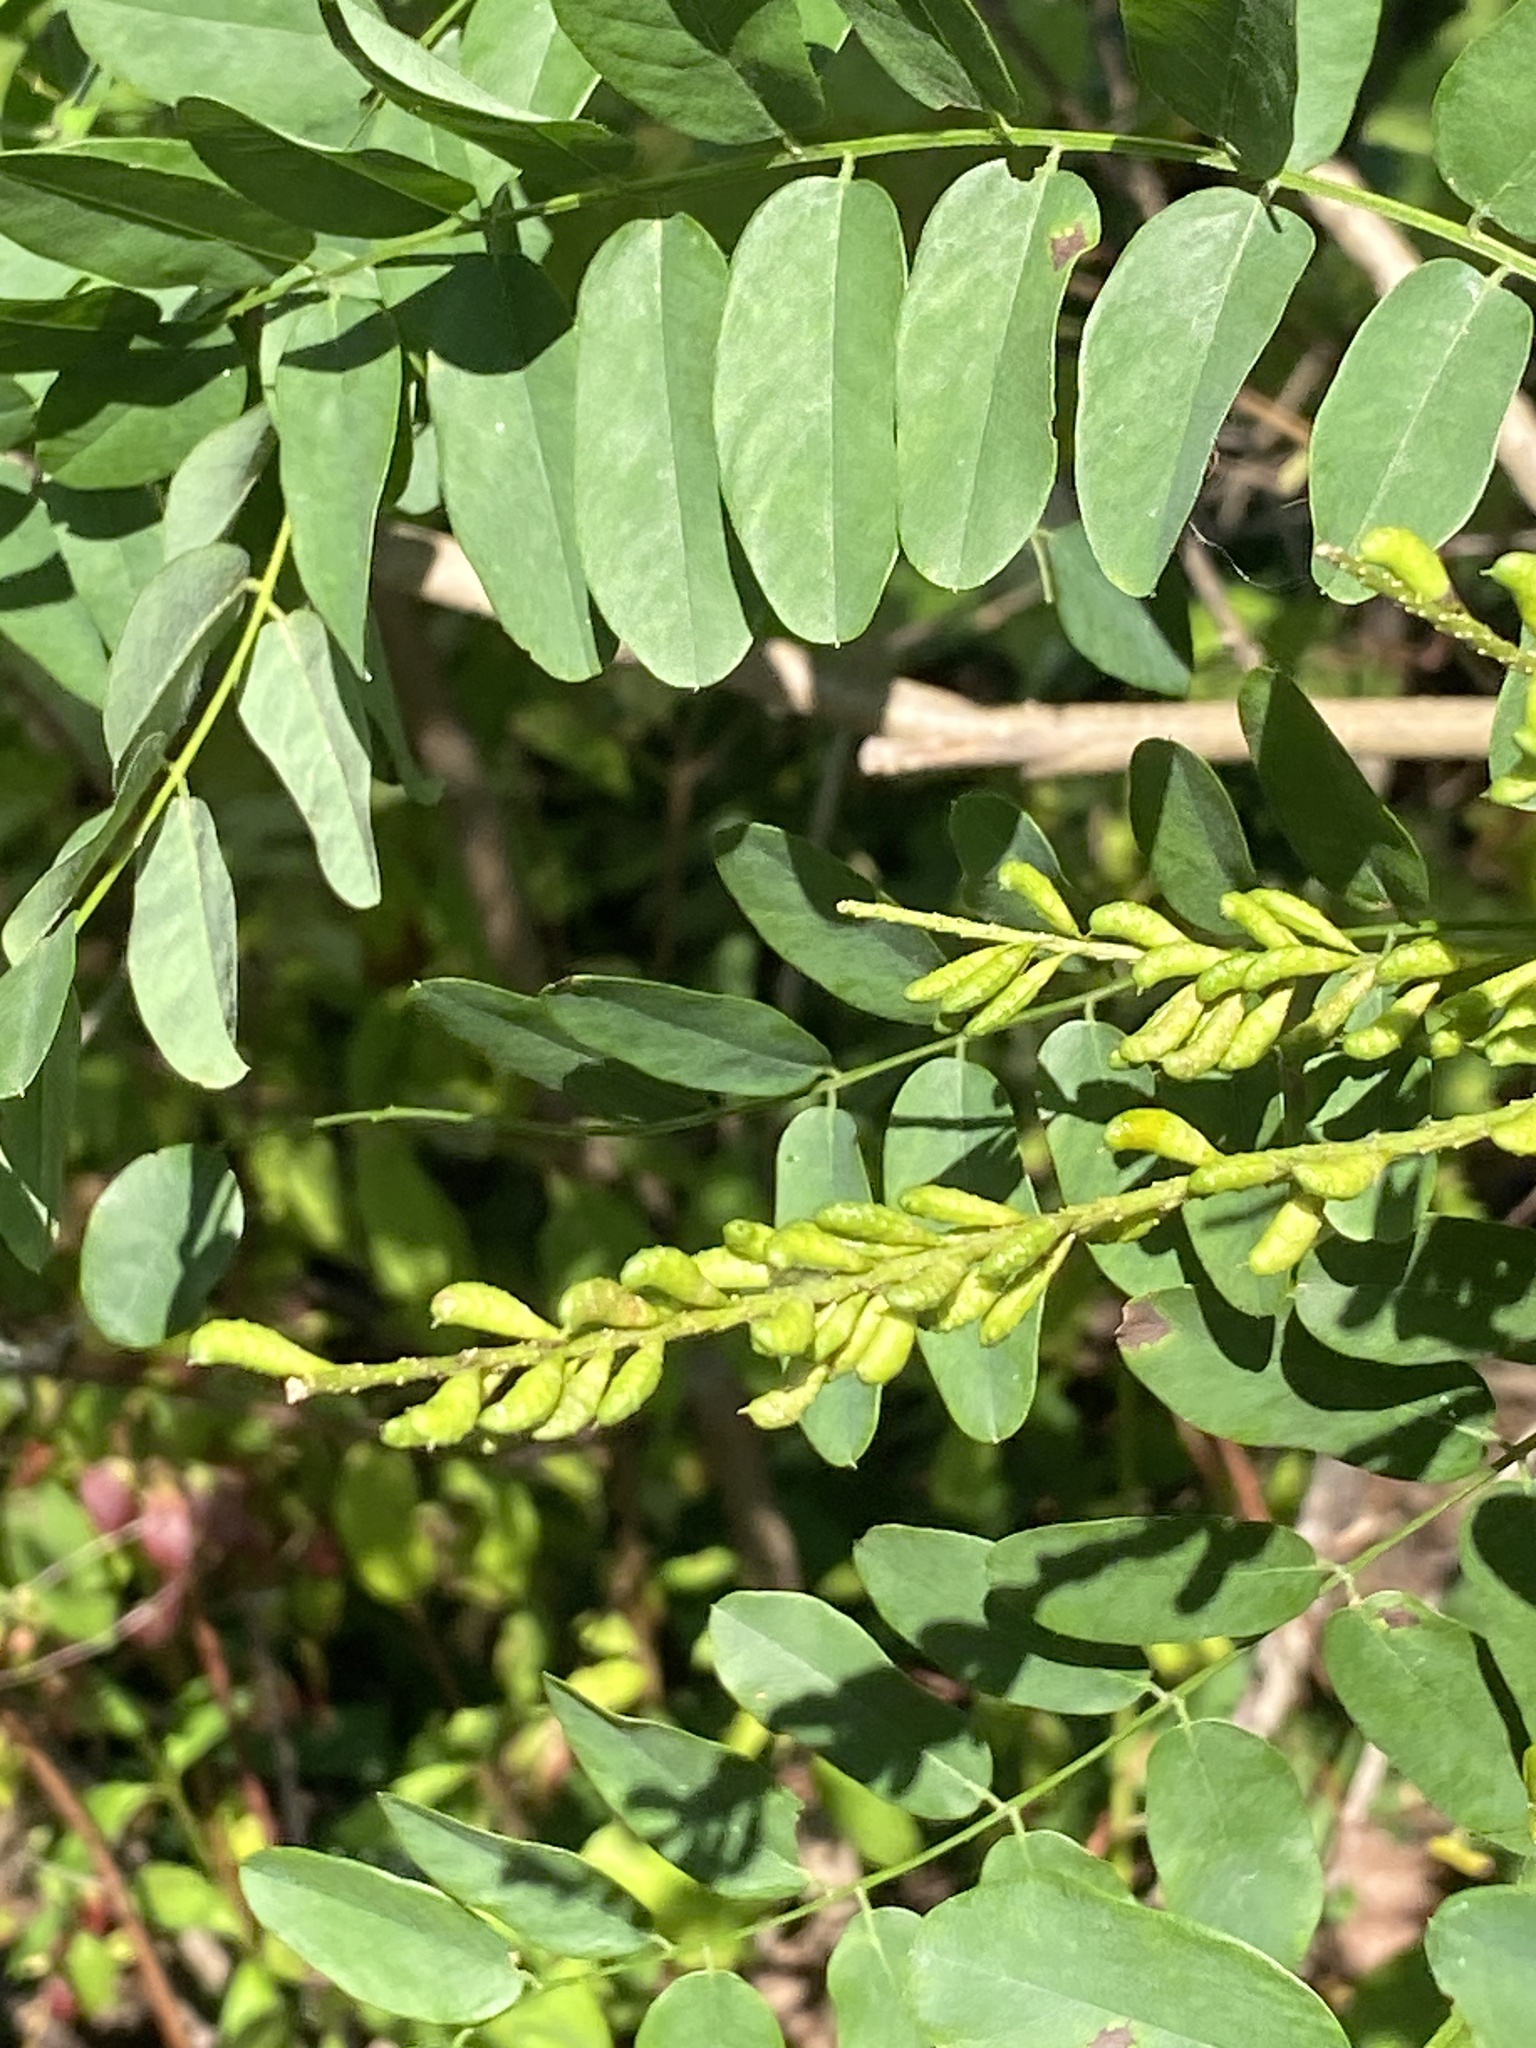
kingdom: Plantae
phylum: Tracheophyta
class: Magnoliopsida
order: Fabales
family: Fabaceae
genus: Amorpha
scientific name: Amorpha fruticosa
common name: False indigo
